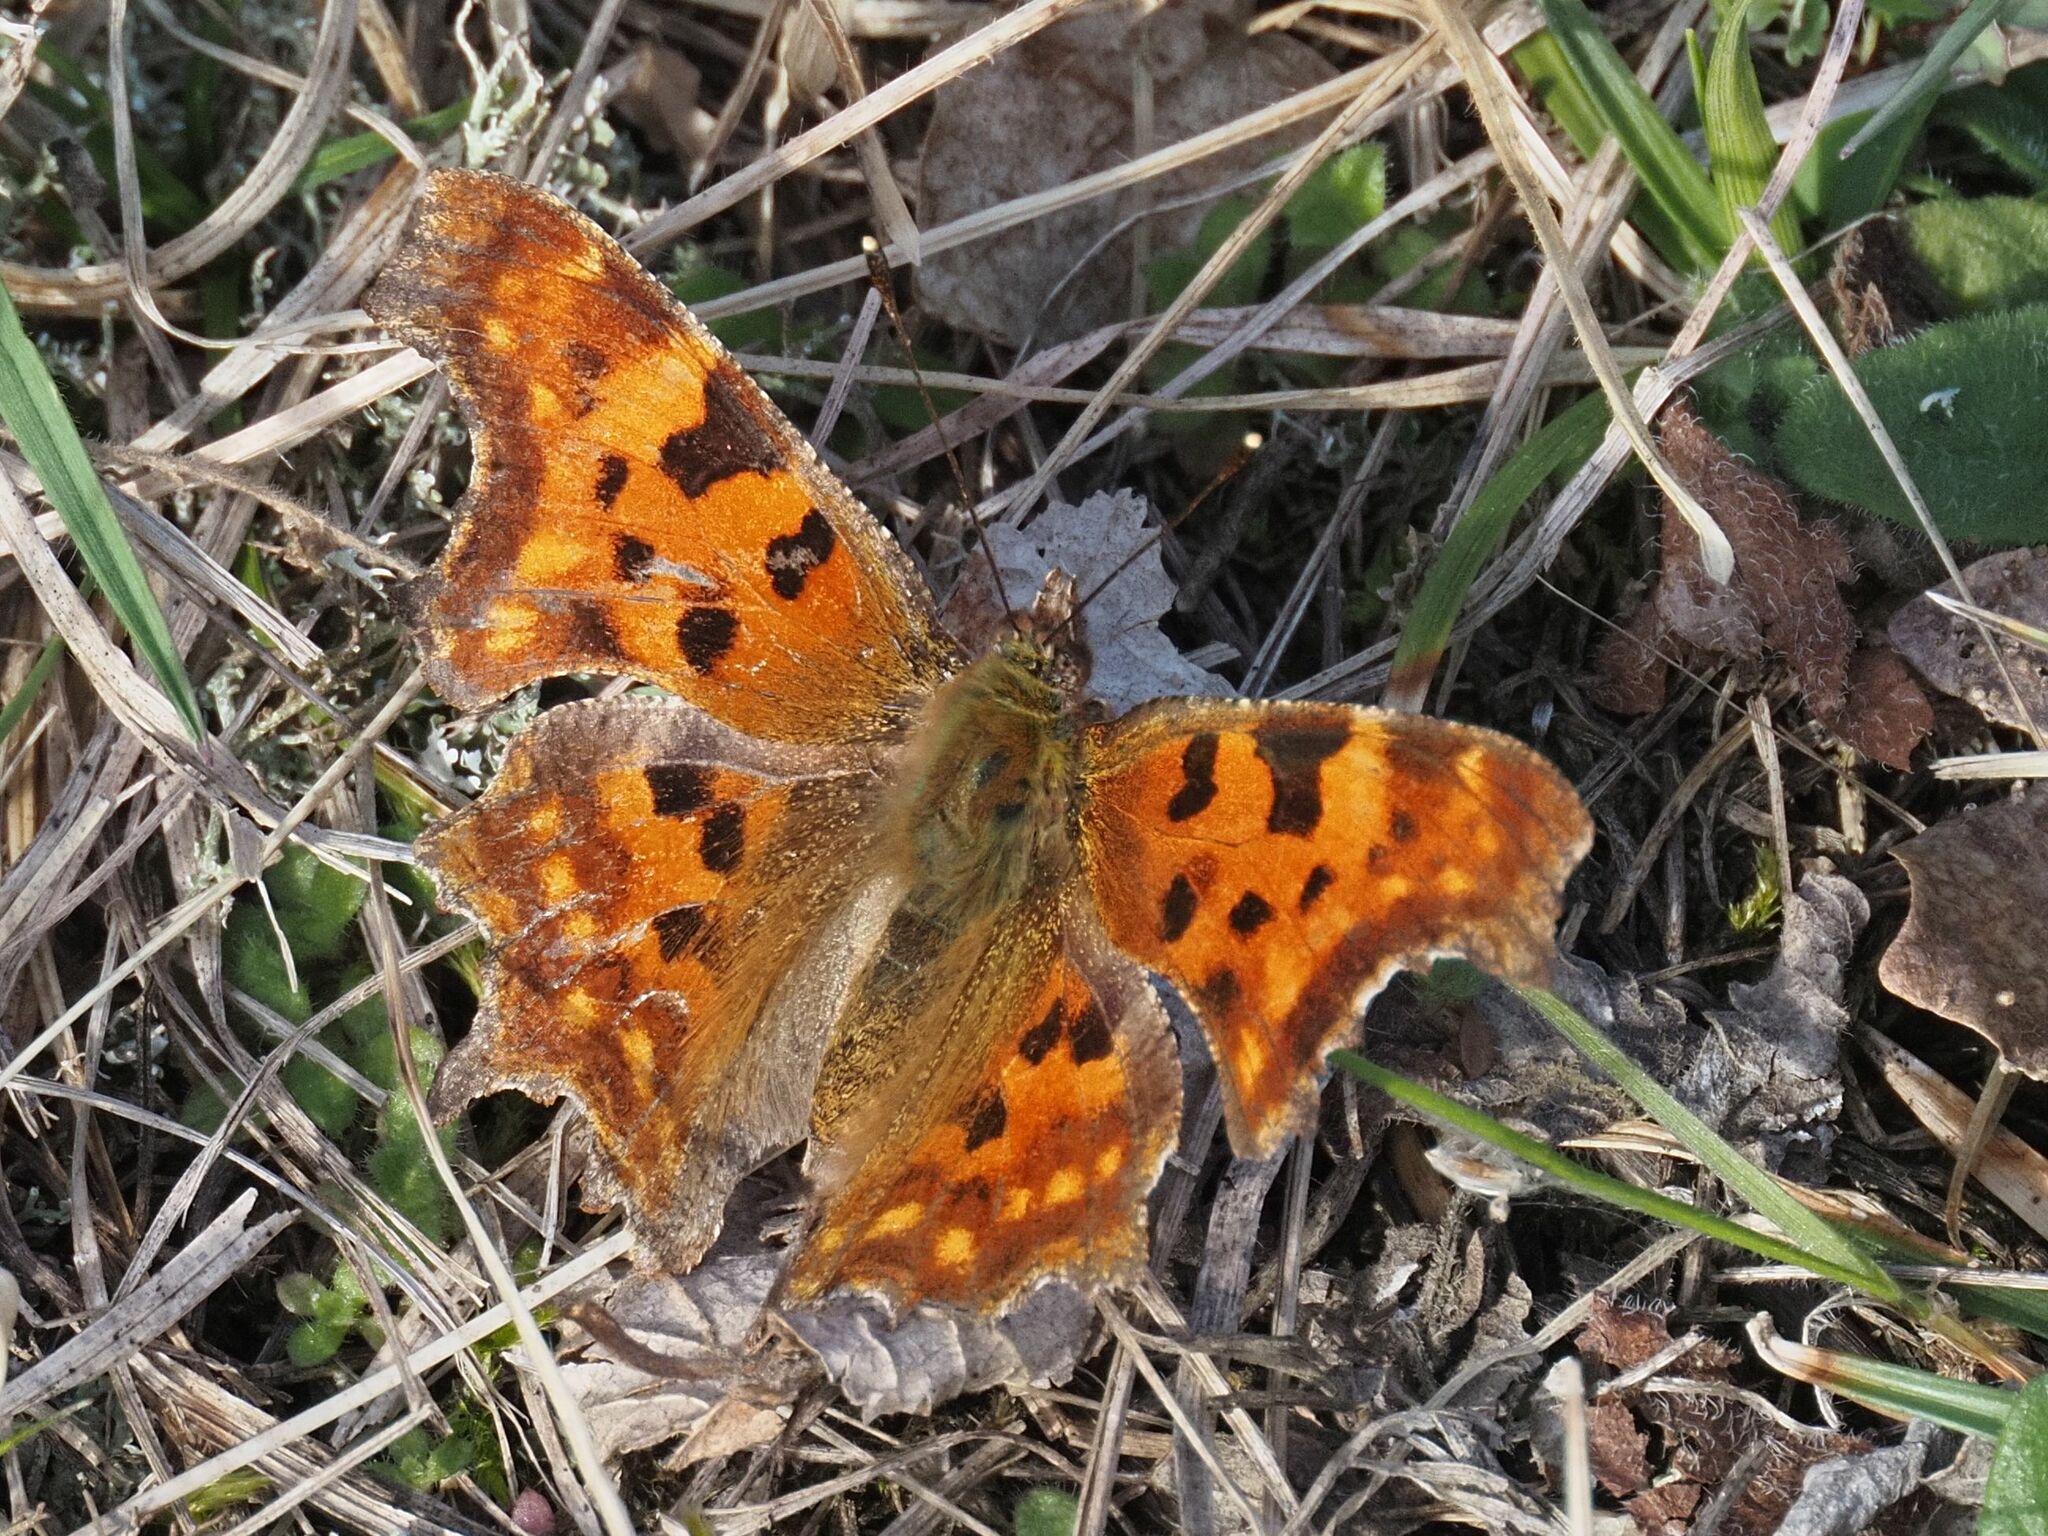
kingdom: Animalia
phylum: Arthropoda
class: Insecta
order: Lepidoptera
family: Nymphalidae
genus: Polygonia
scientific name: Polygonia c-album
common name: Comma
